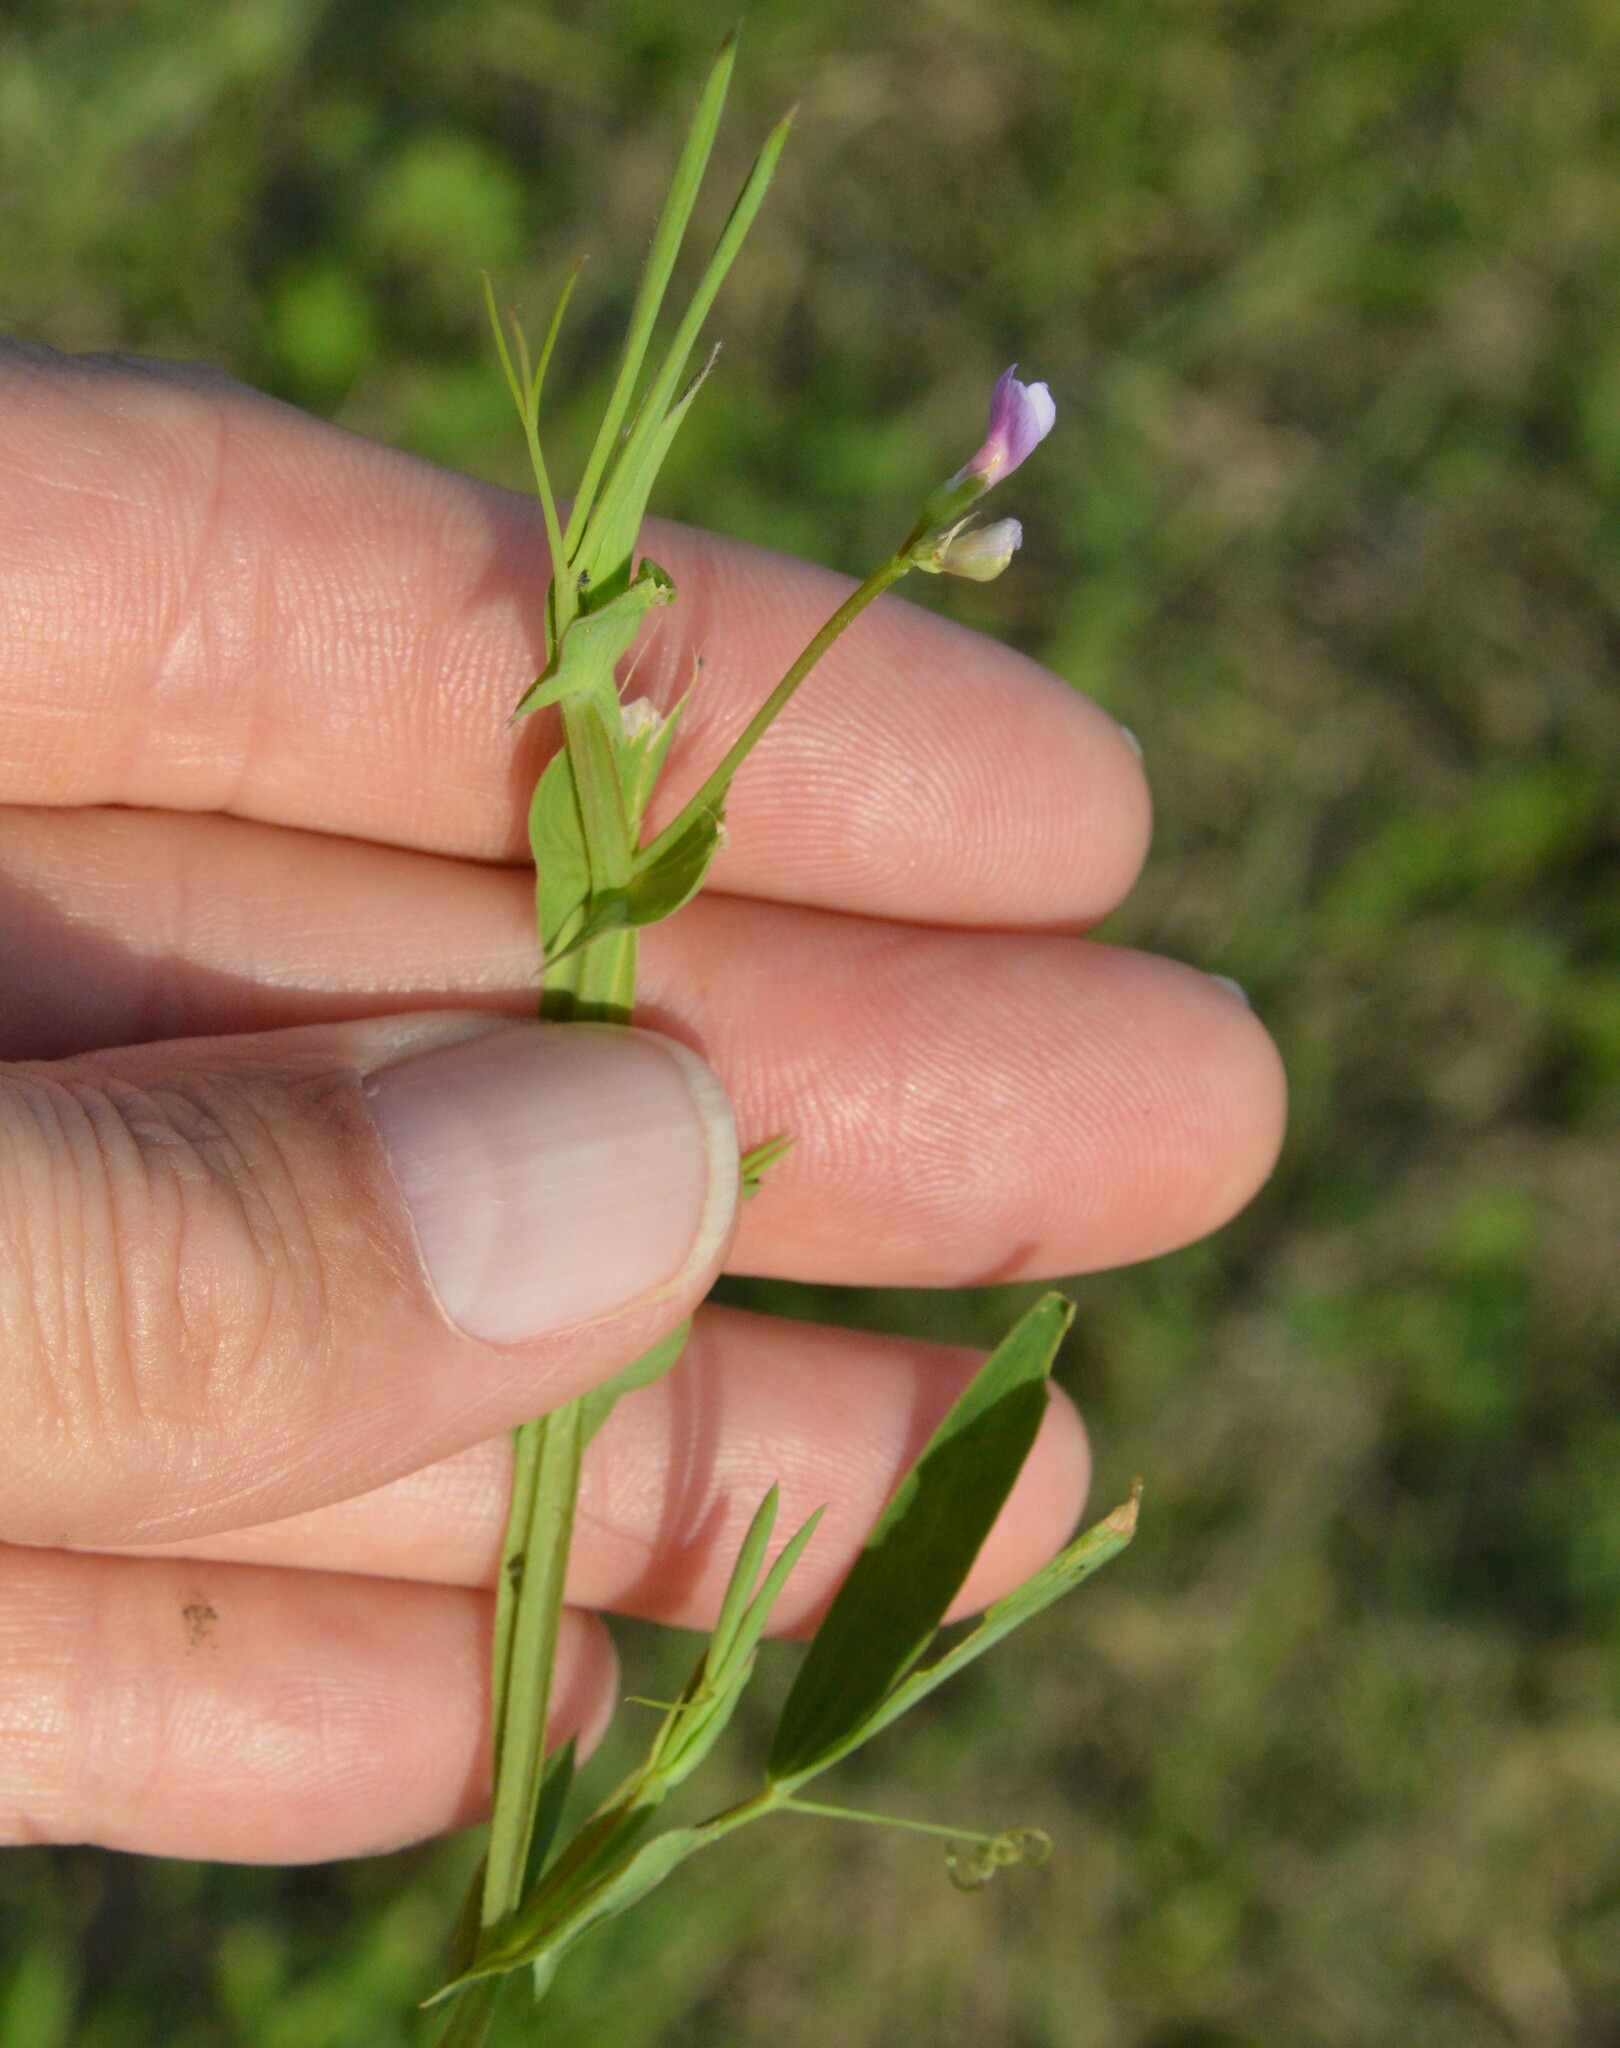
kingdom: Plantae
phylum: Tracheophyta
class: Magnoliopsida
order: Fabales
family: Fabaceae
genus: Lathyrus
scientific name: Lathyrus pusillus
